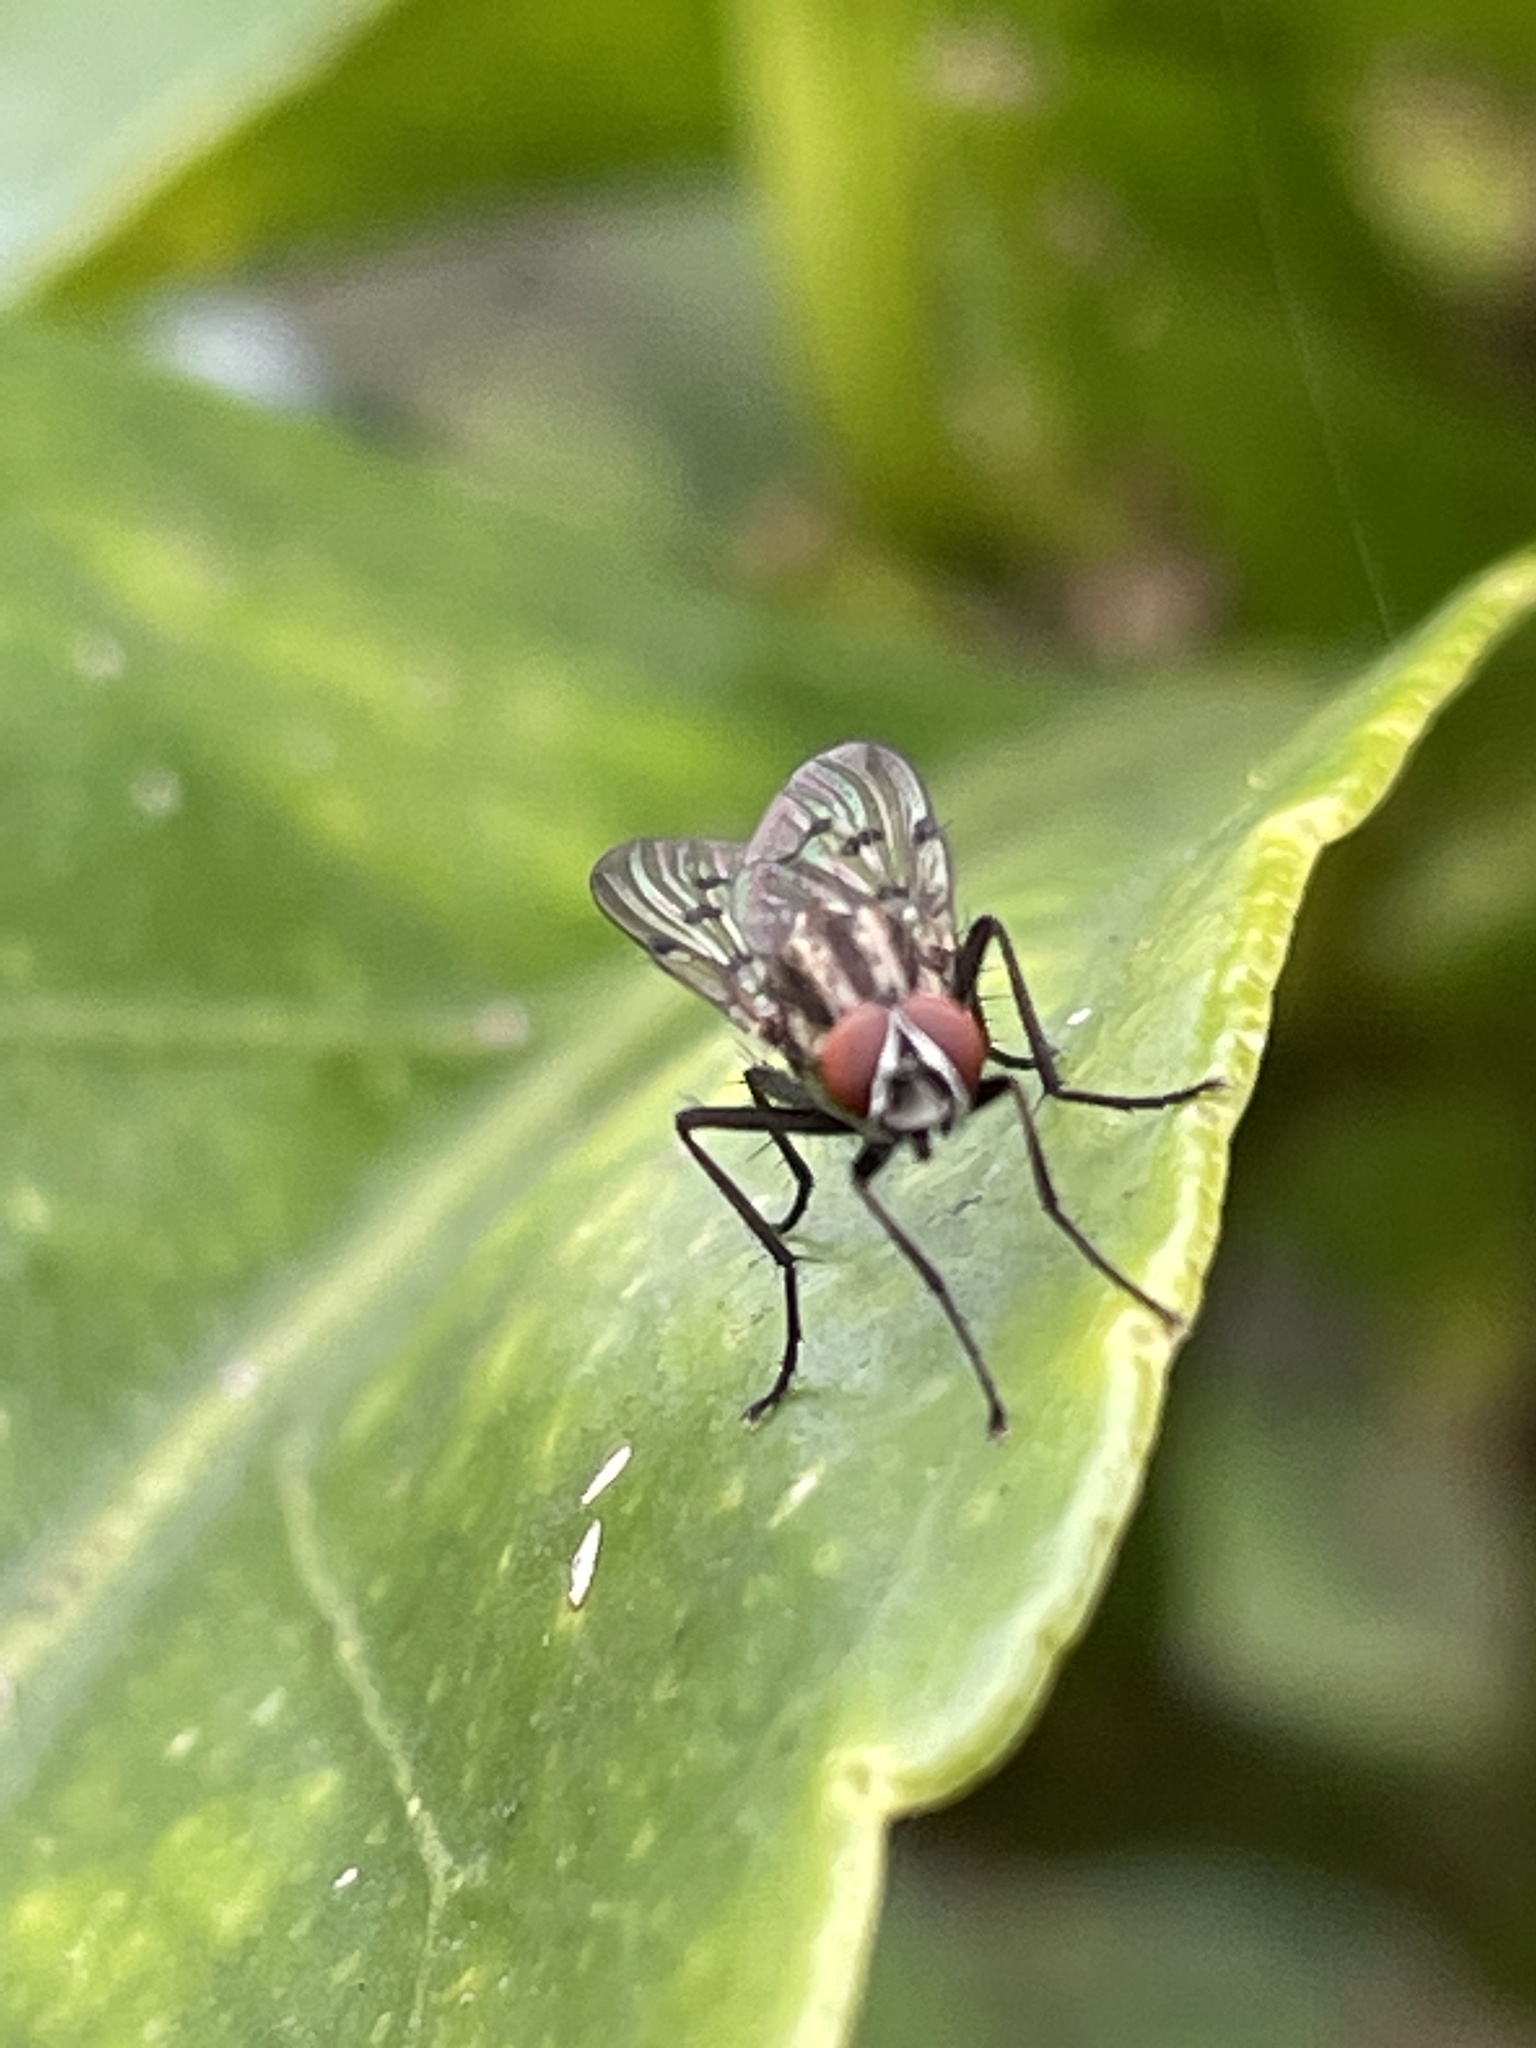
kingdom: Animalia
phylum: Arthropoda
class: Insecta
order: Diptera
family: Anthomyiidae
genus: Anthomyia
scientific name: Anthomyia punctipennis
